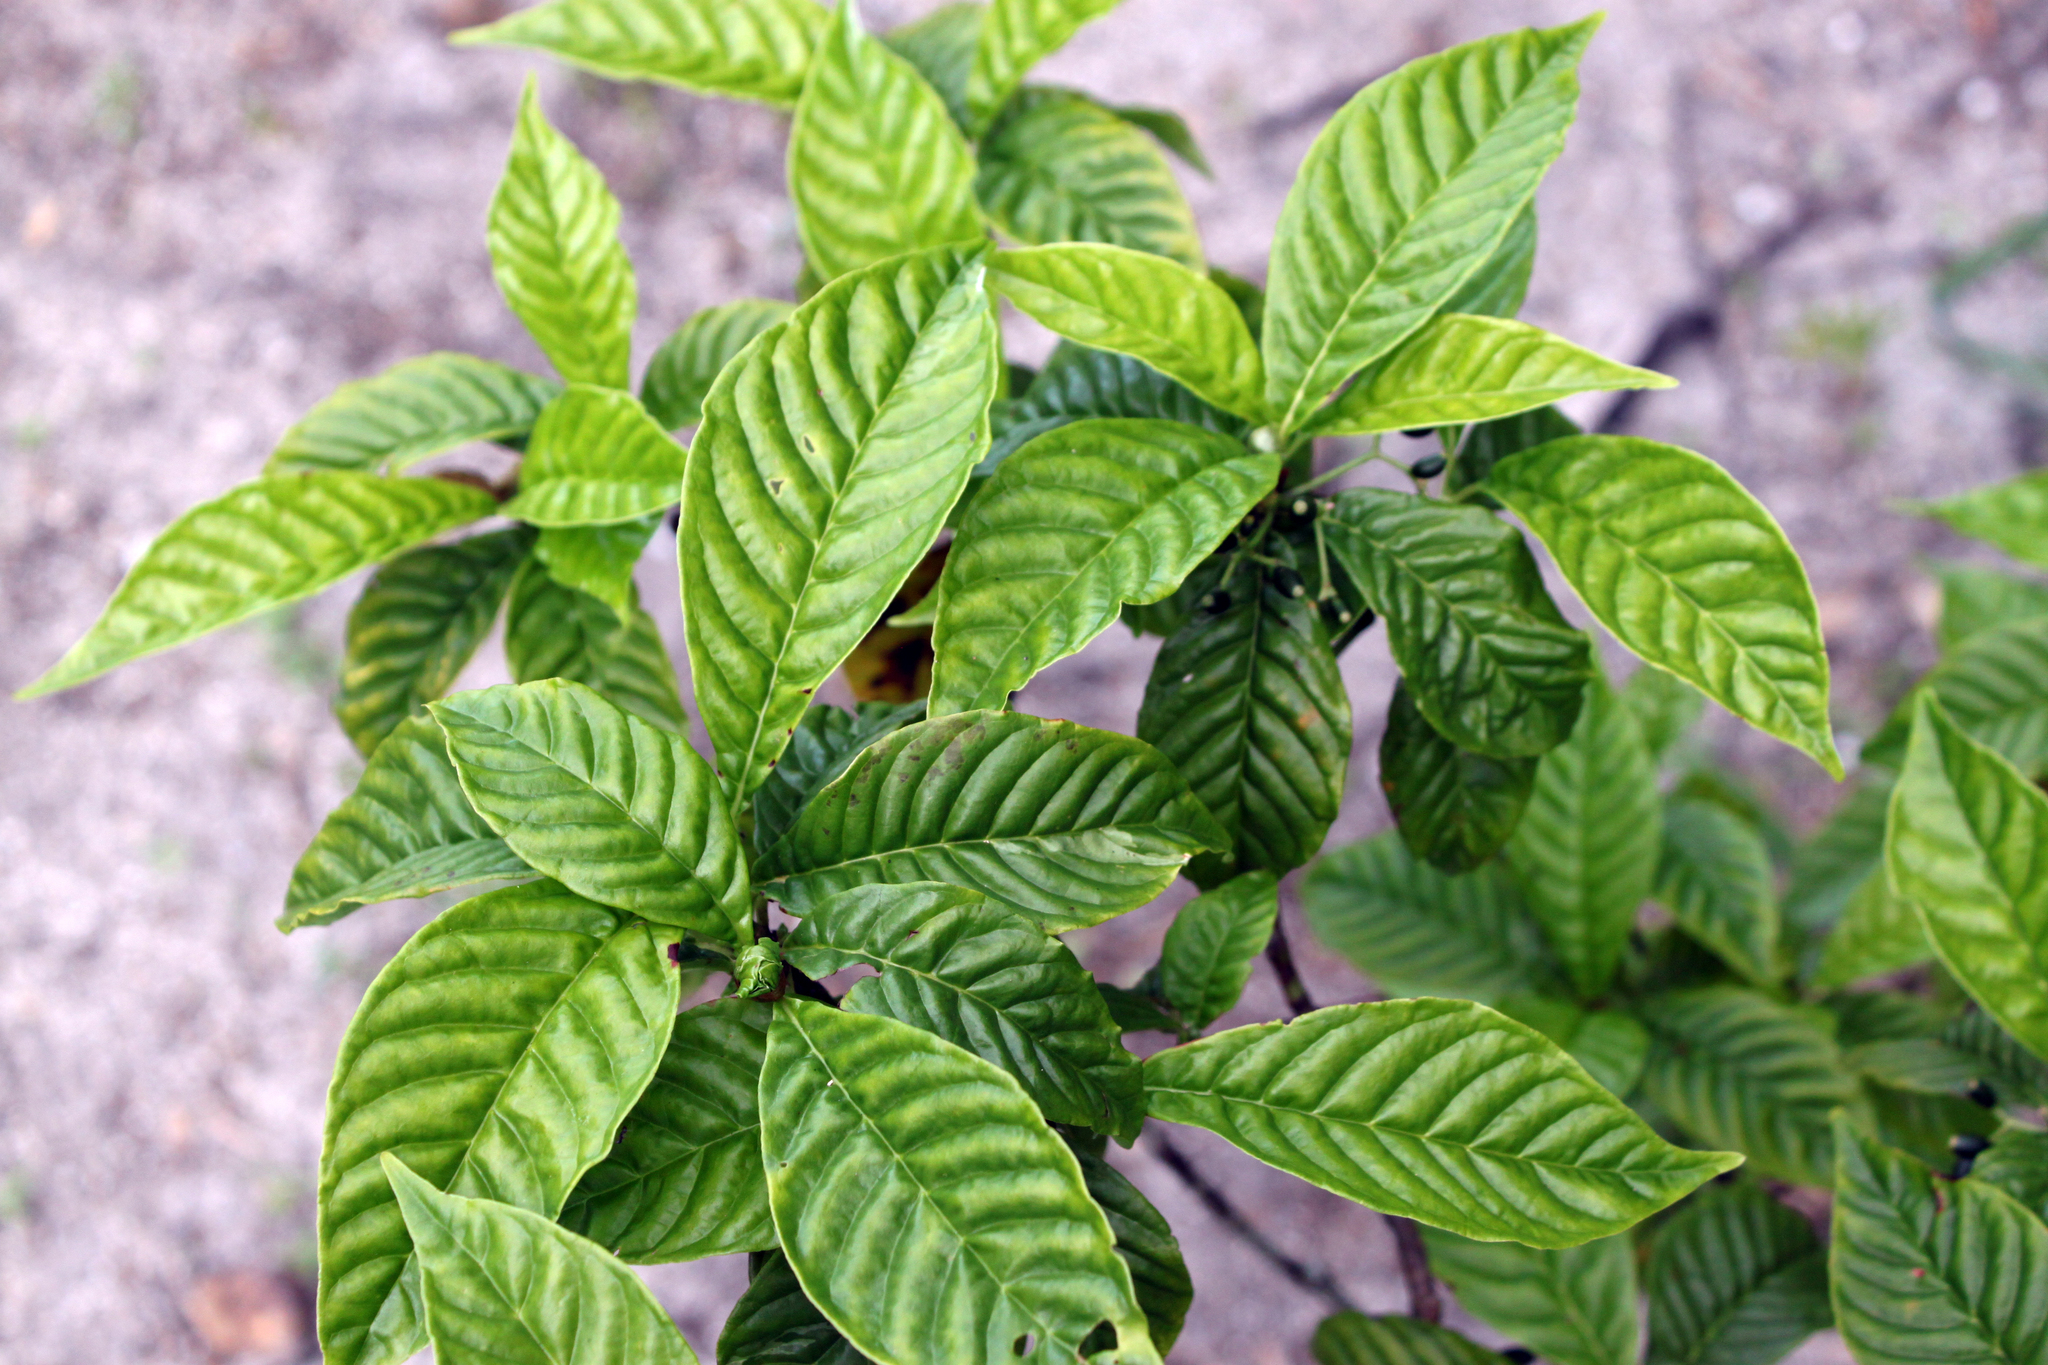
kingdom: Plantae
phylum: Tracheophyta
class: Magnoliopsida
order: Gentianales
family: Rubiaceae
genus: Psychotria
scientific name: Psychotria nervosa
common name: Bastard cankerberry
